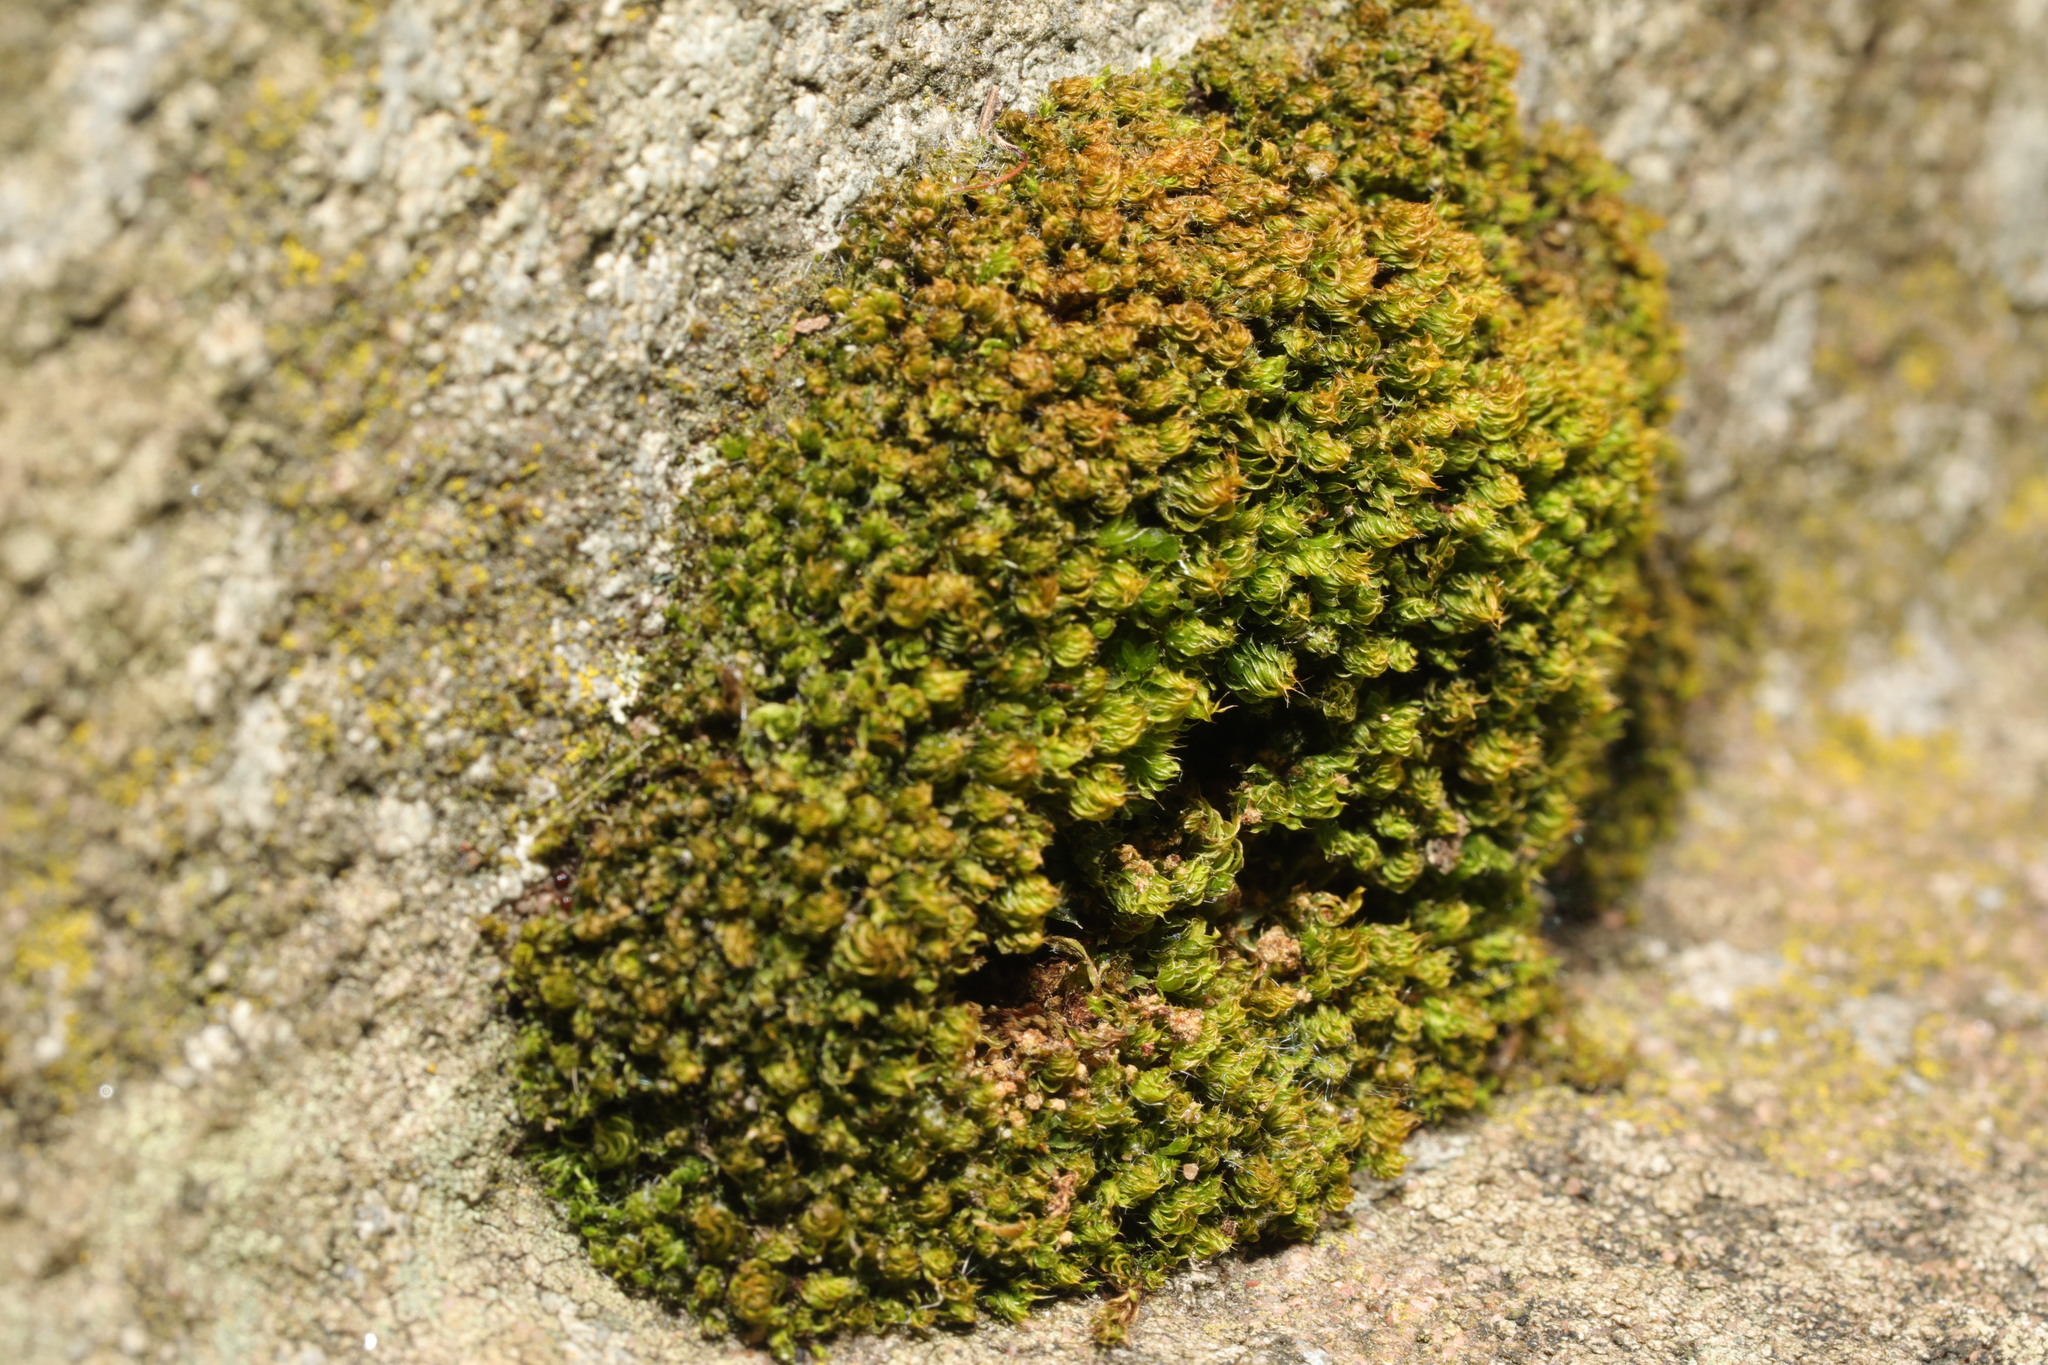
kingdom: Plantae
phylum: Bryophyta
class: Bryopsida
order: Bryales
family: Bryaceae
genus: Rosulabryum
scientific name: Rosulabryum capillare
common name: Capillary thread-moss
